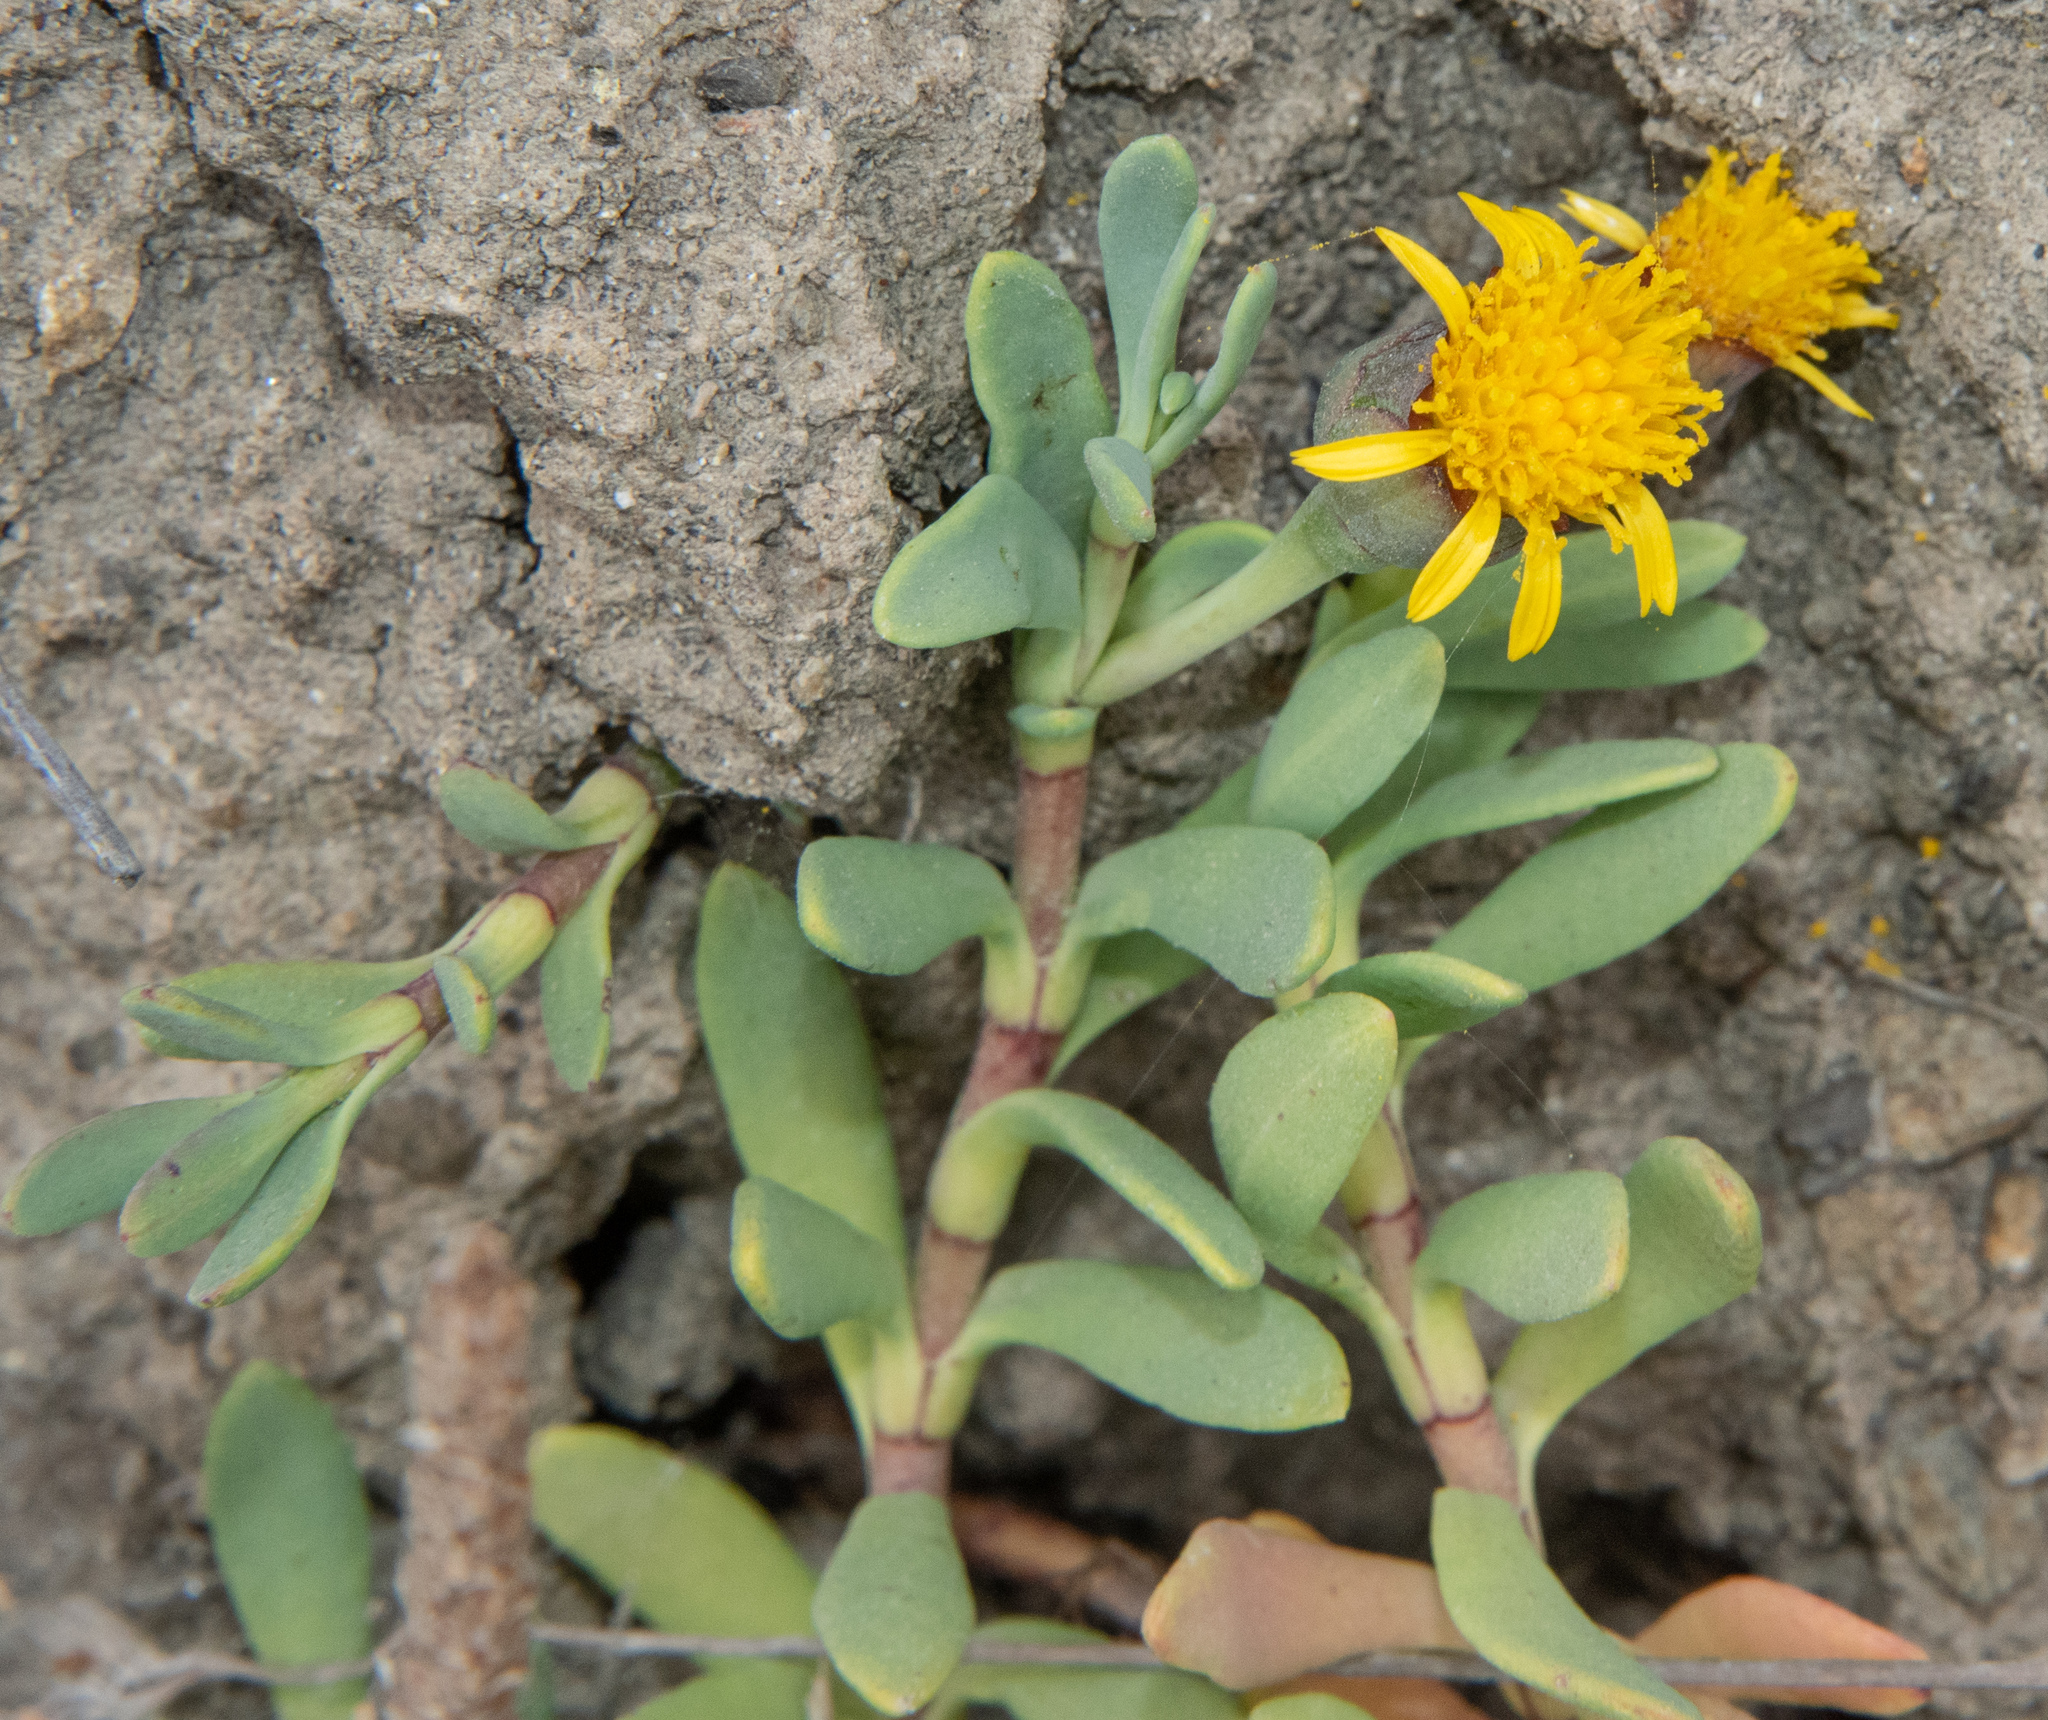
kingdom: Plantae
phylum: Tracheophyta
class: Magnoliopsida
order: Asterales
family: Asteraceae
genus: Jaumea
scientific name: Jaumea carnosa
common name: Fleshy jaumea
